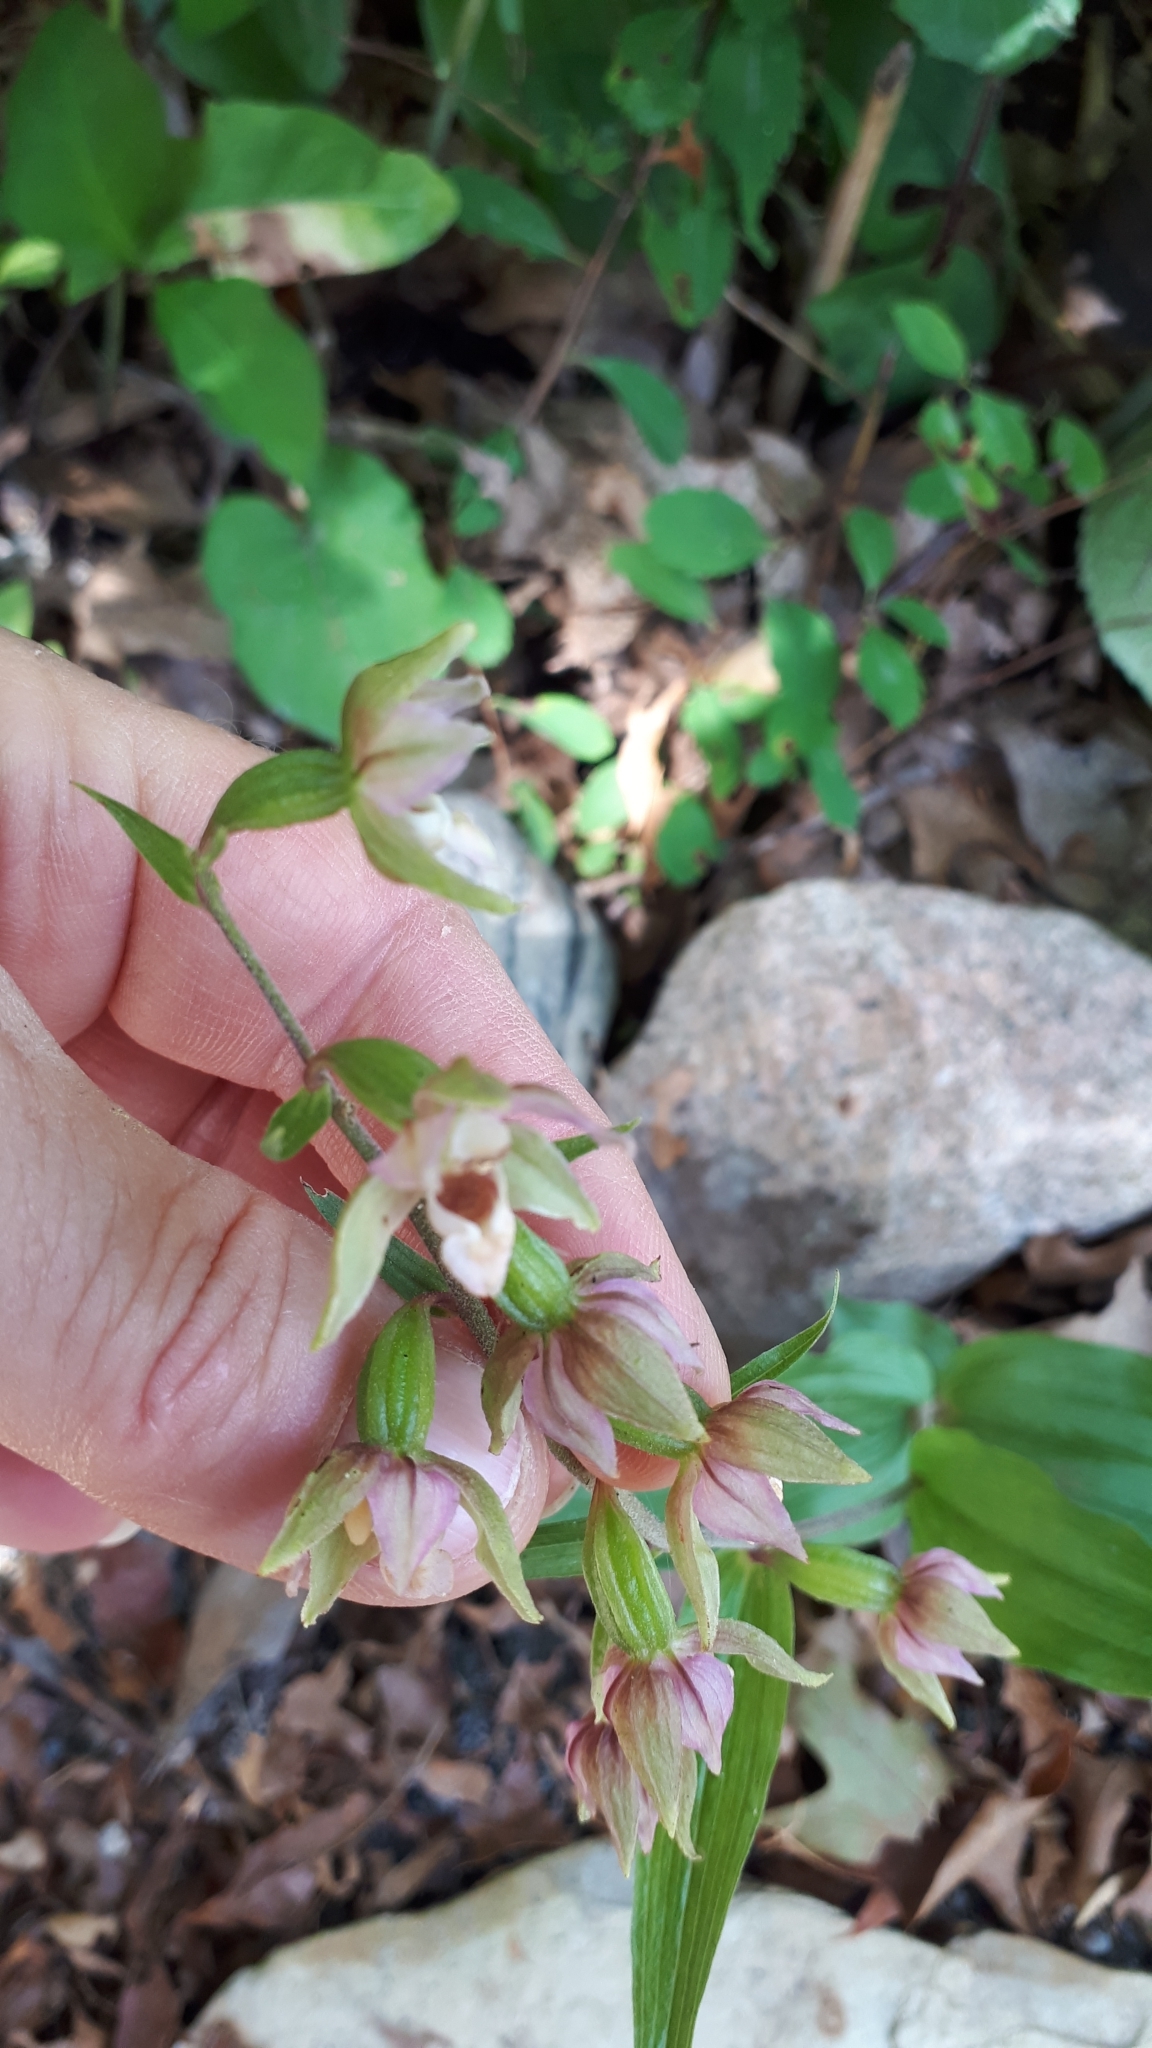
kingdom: Plantae
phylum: Tracheophyta
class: Liliopsida
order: Asparagales
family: Orchidaceae
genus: Epipactis
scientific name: Epipactis helleborine
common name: Broad-leaved helleborine
